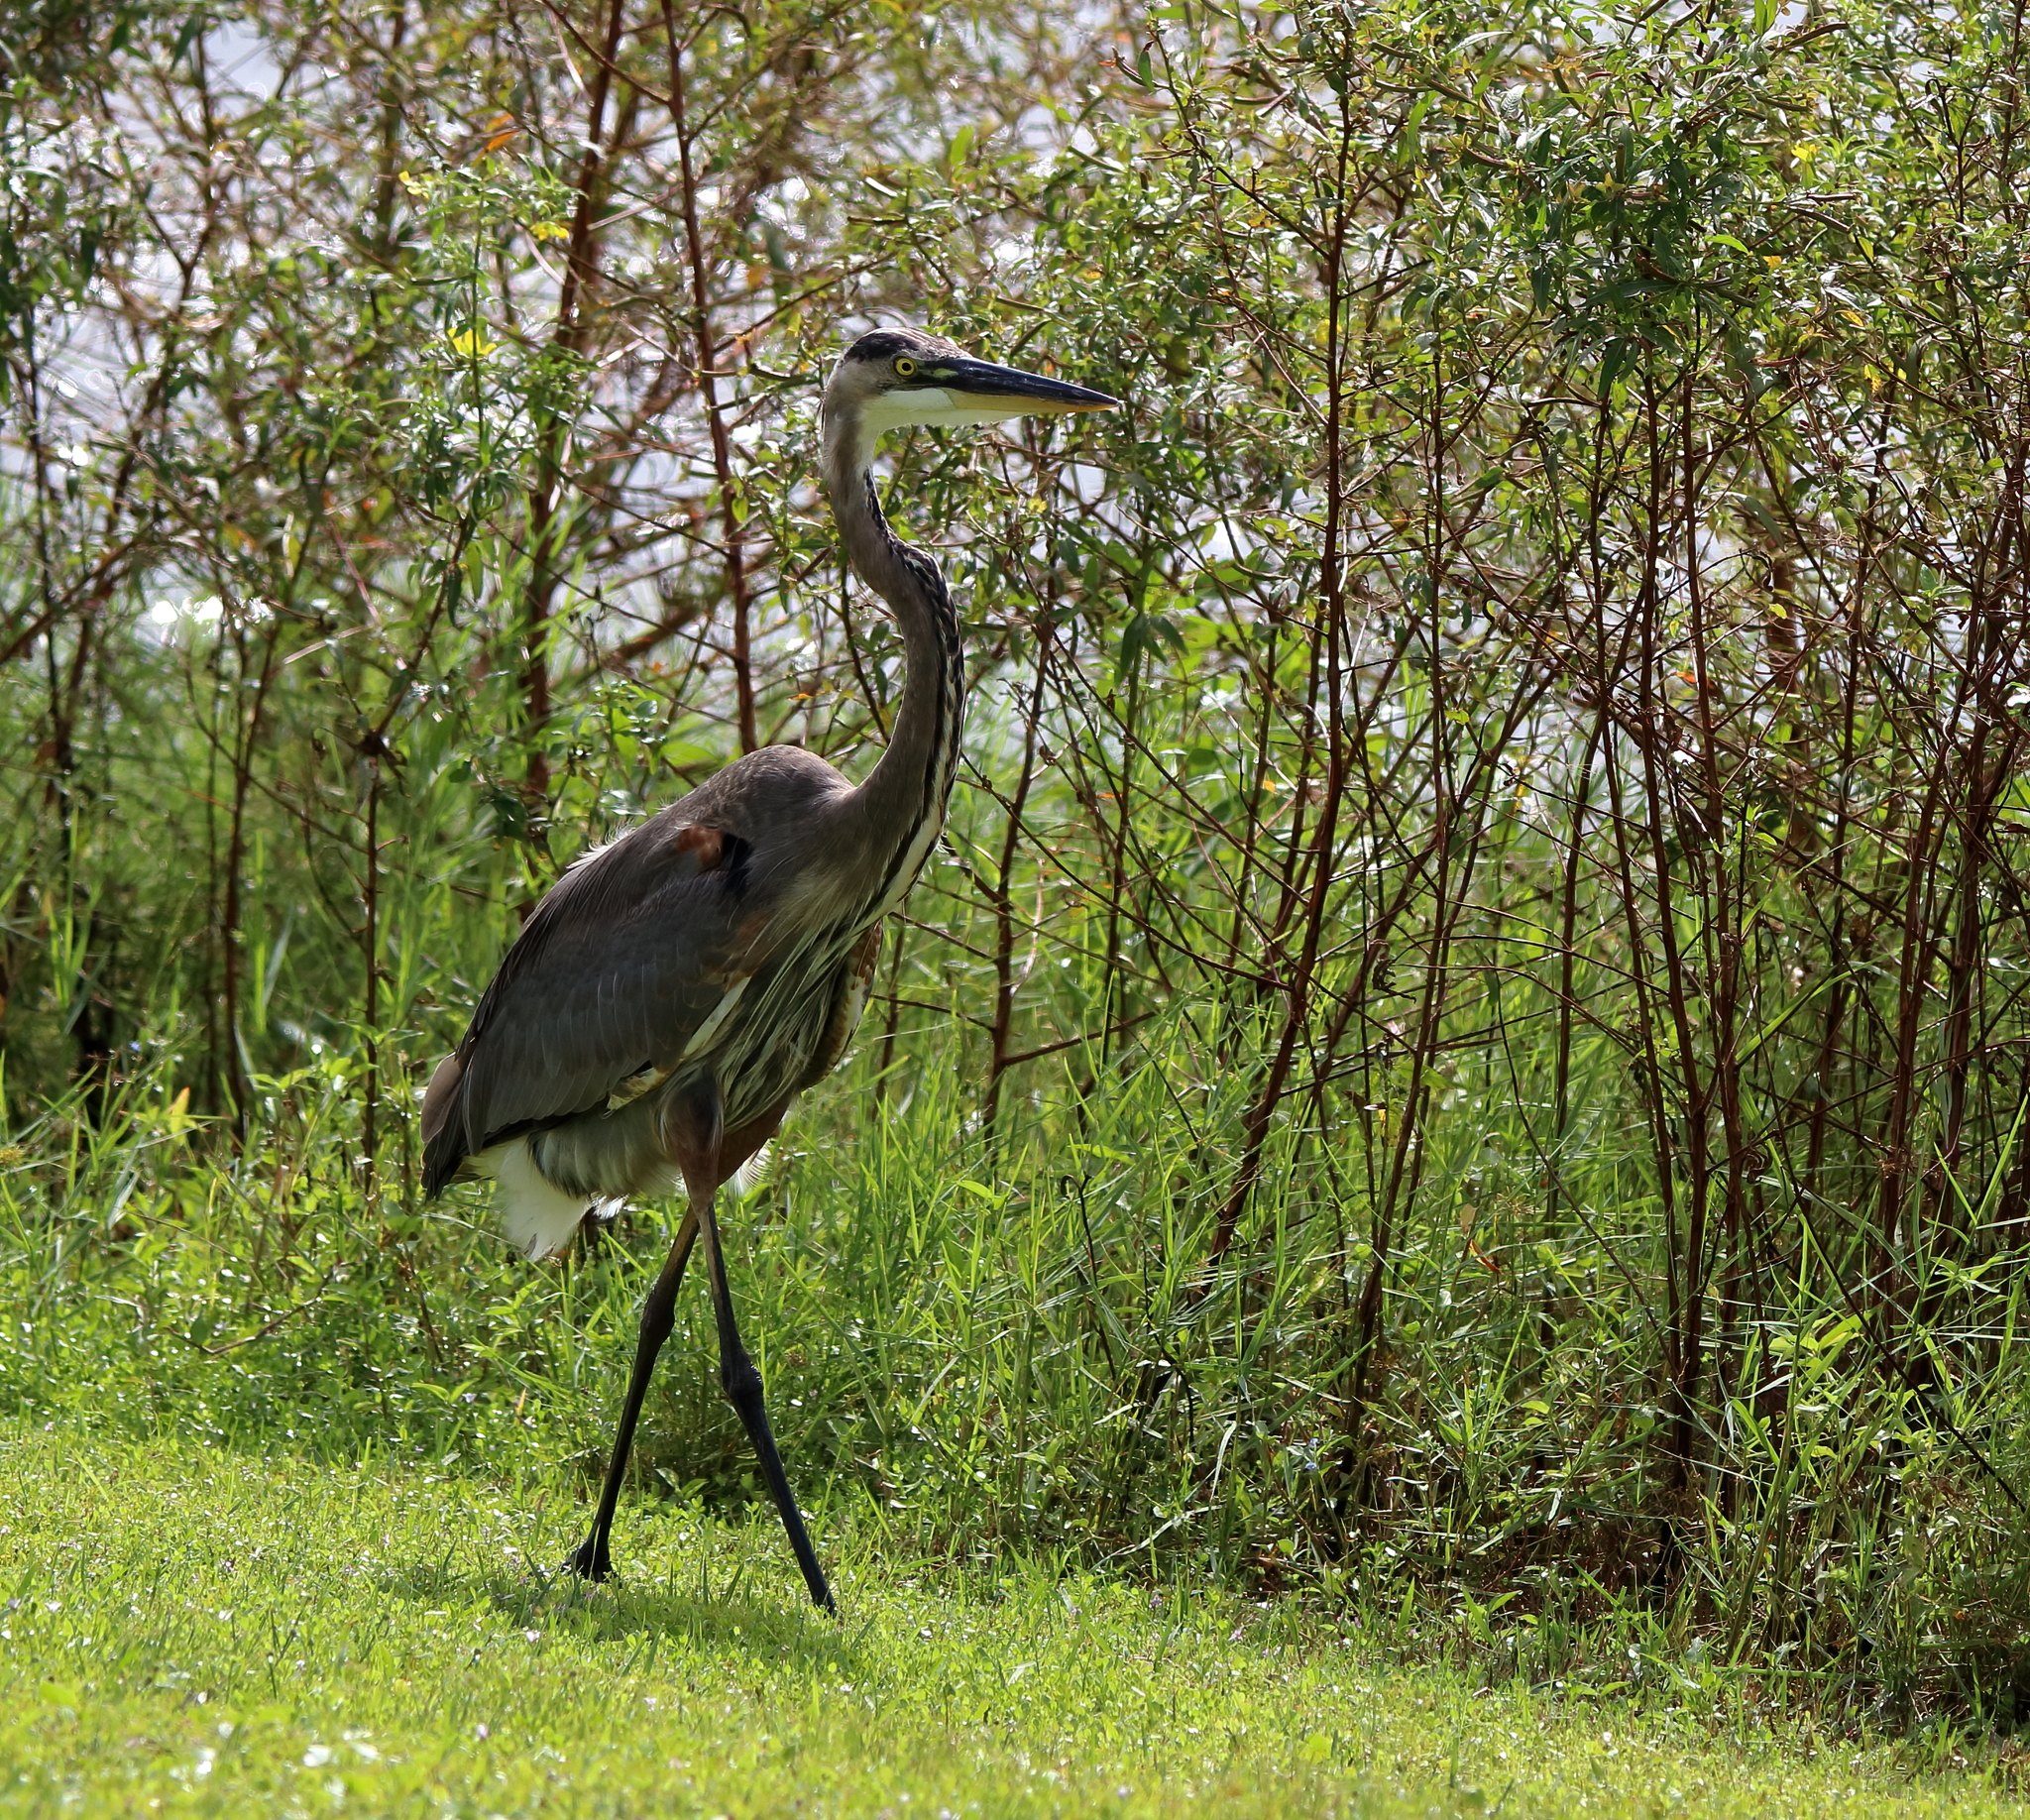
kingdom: Animalia
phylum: Chordata
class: Aves
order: Pelecaniformes
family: Ardeidae
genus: Ardea
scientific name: Ardea herodias
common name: Great blue heron
